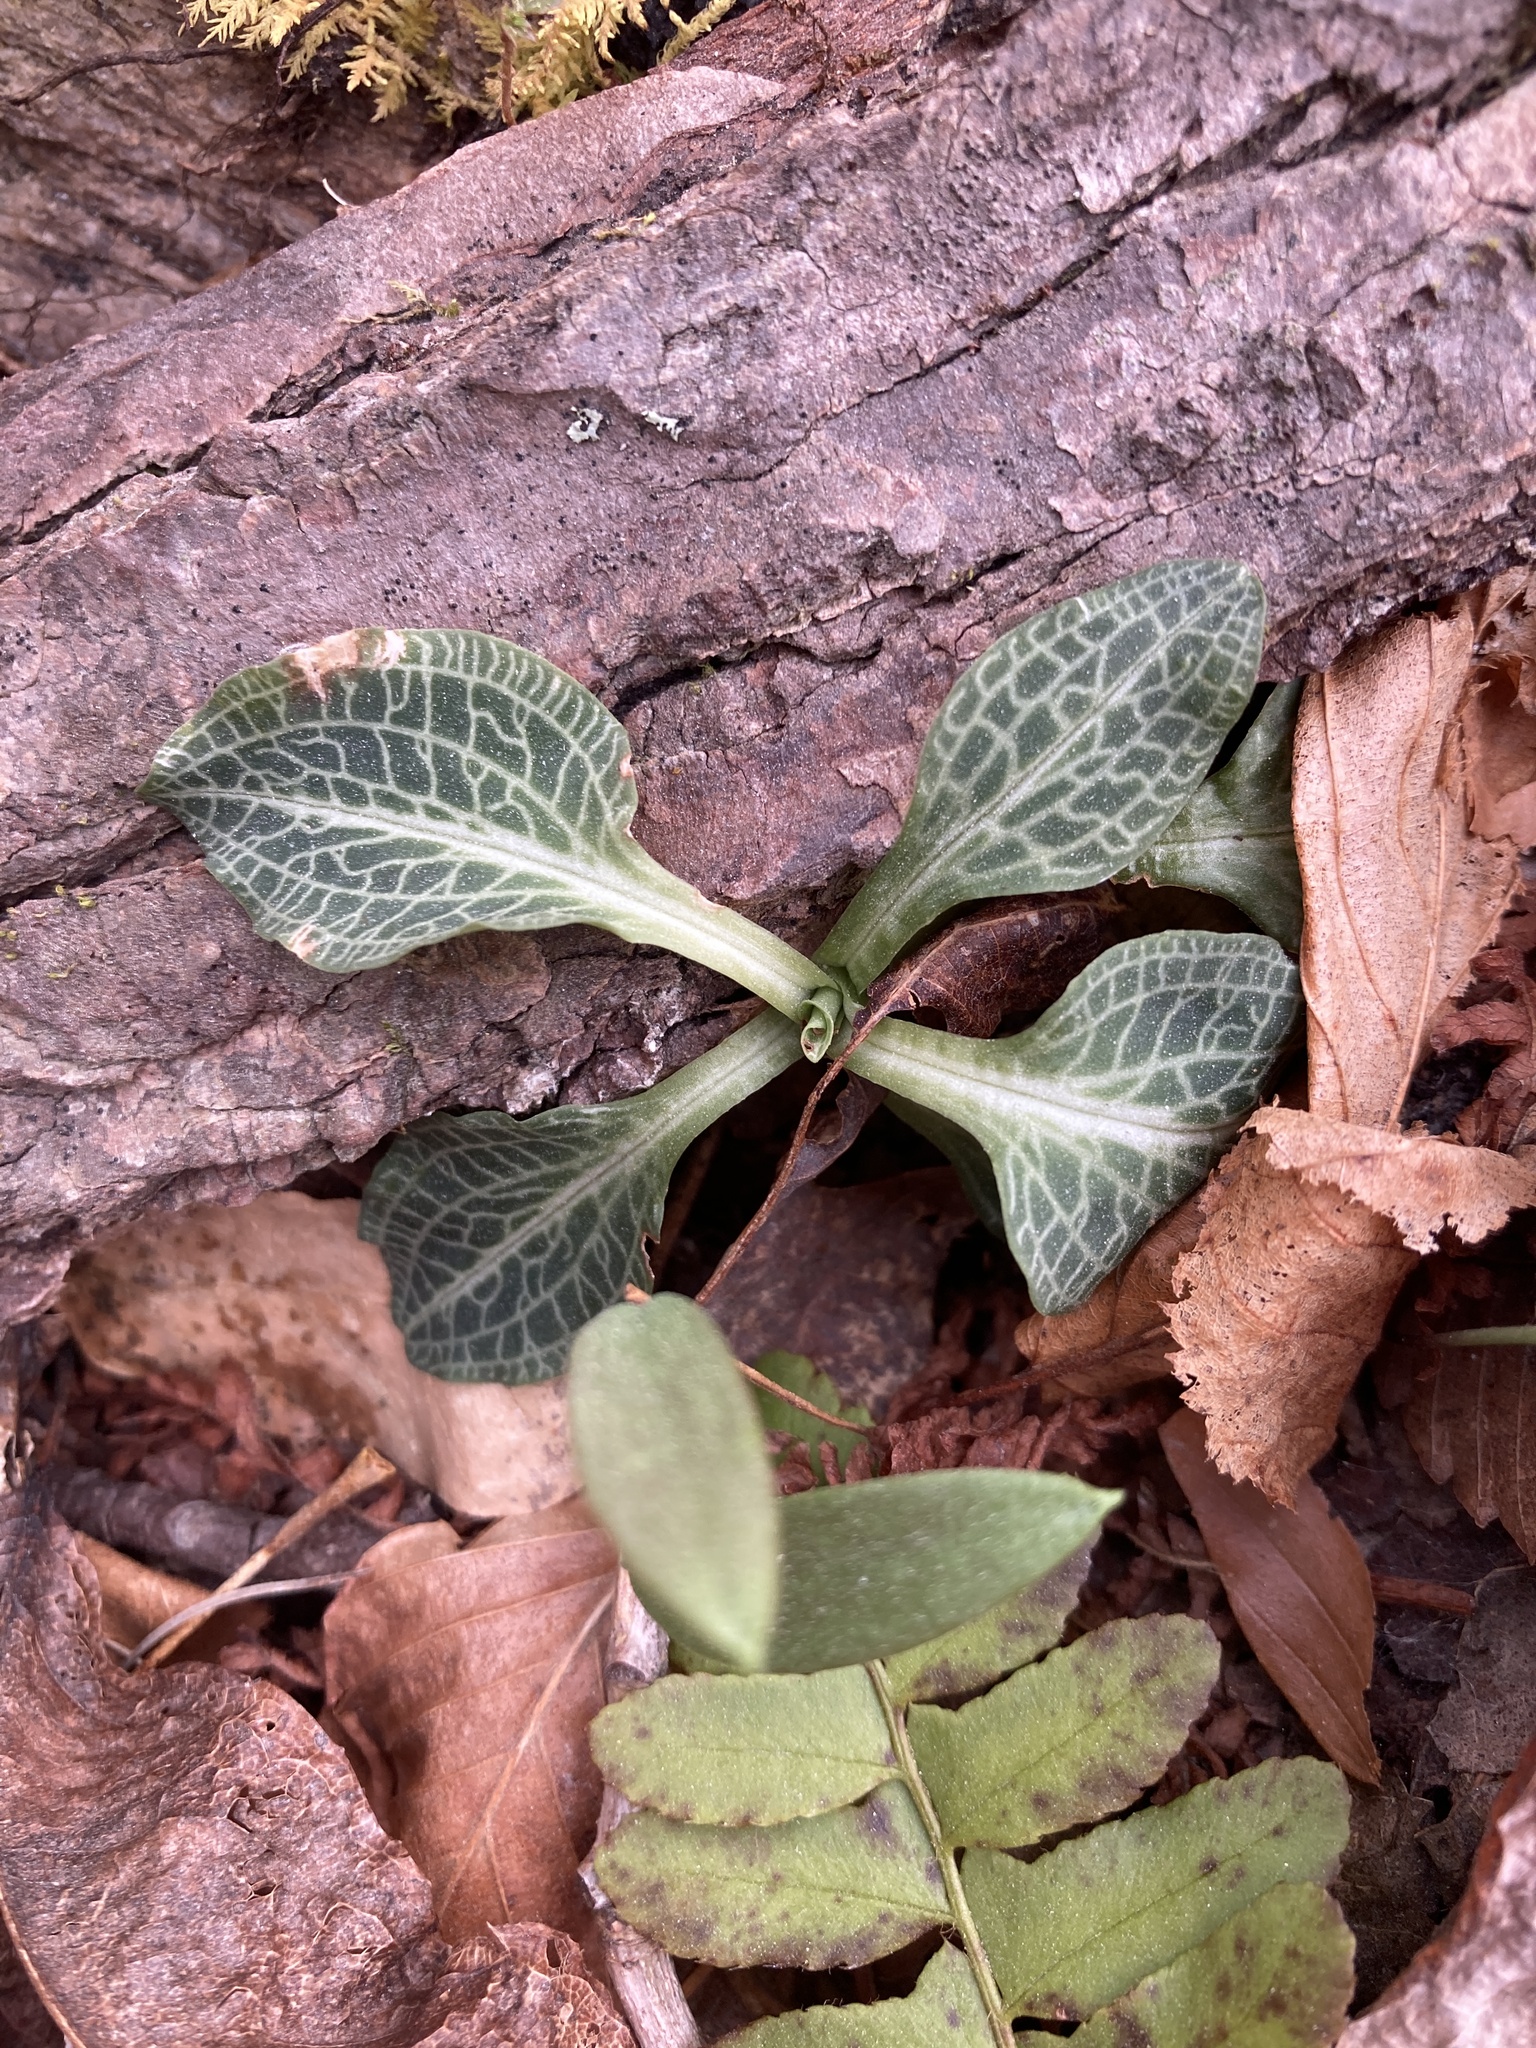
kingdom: Plantae
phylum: Tracheophyta
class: Liliopsida
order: Asparagales
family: Orchidaceae
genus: Goodyera
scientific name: Goodyera pubescens
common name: Downy rattlesnake-plantain
